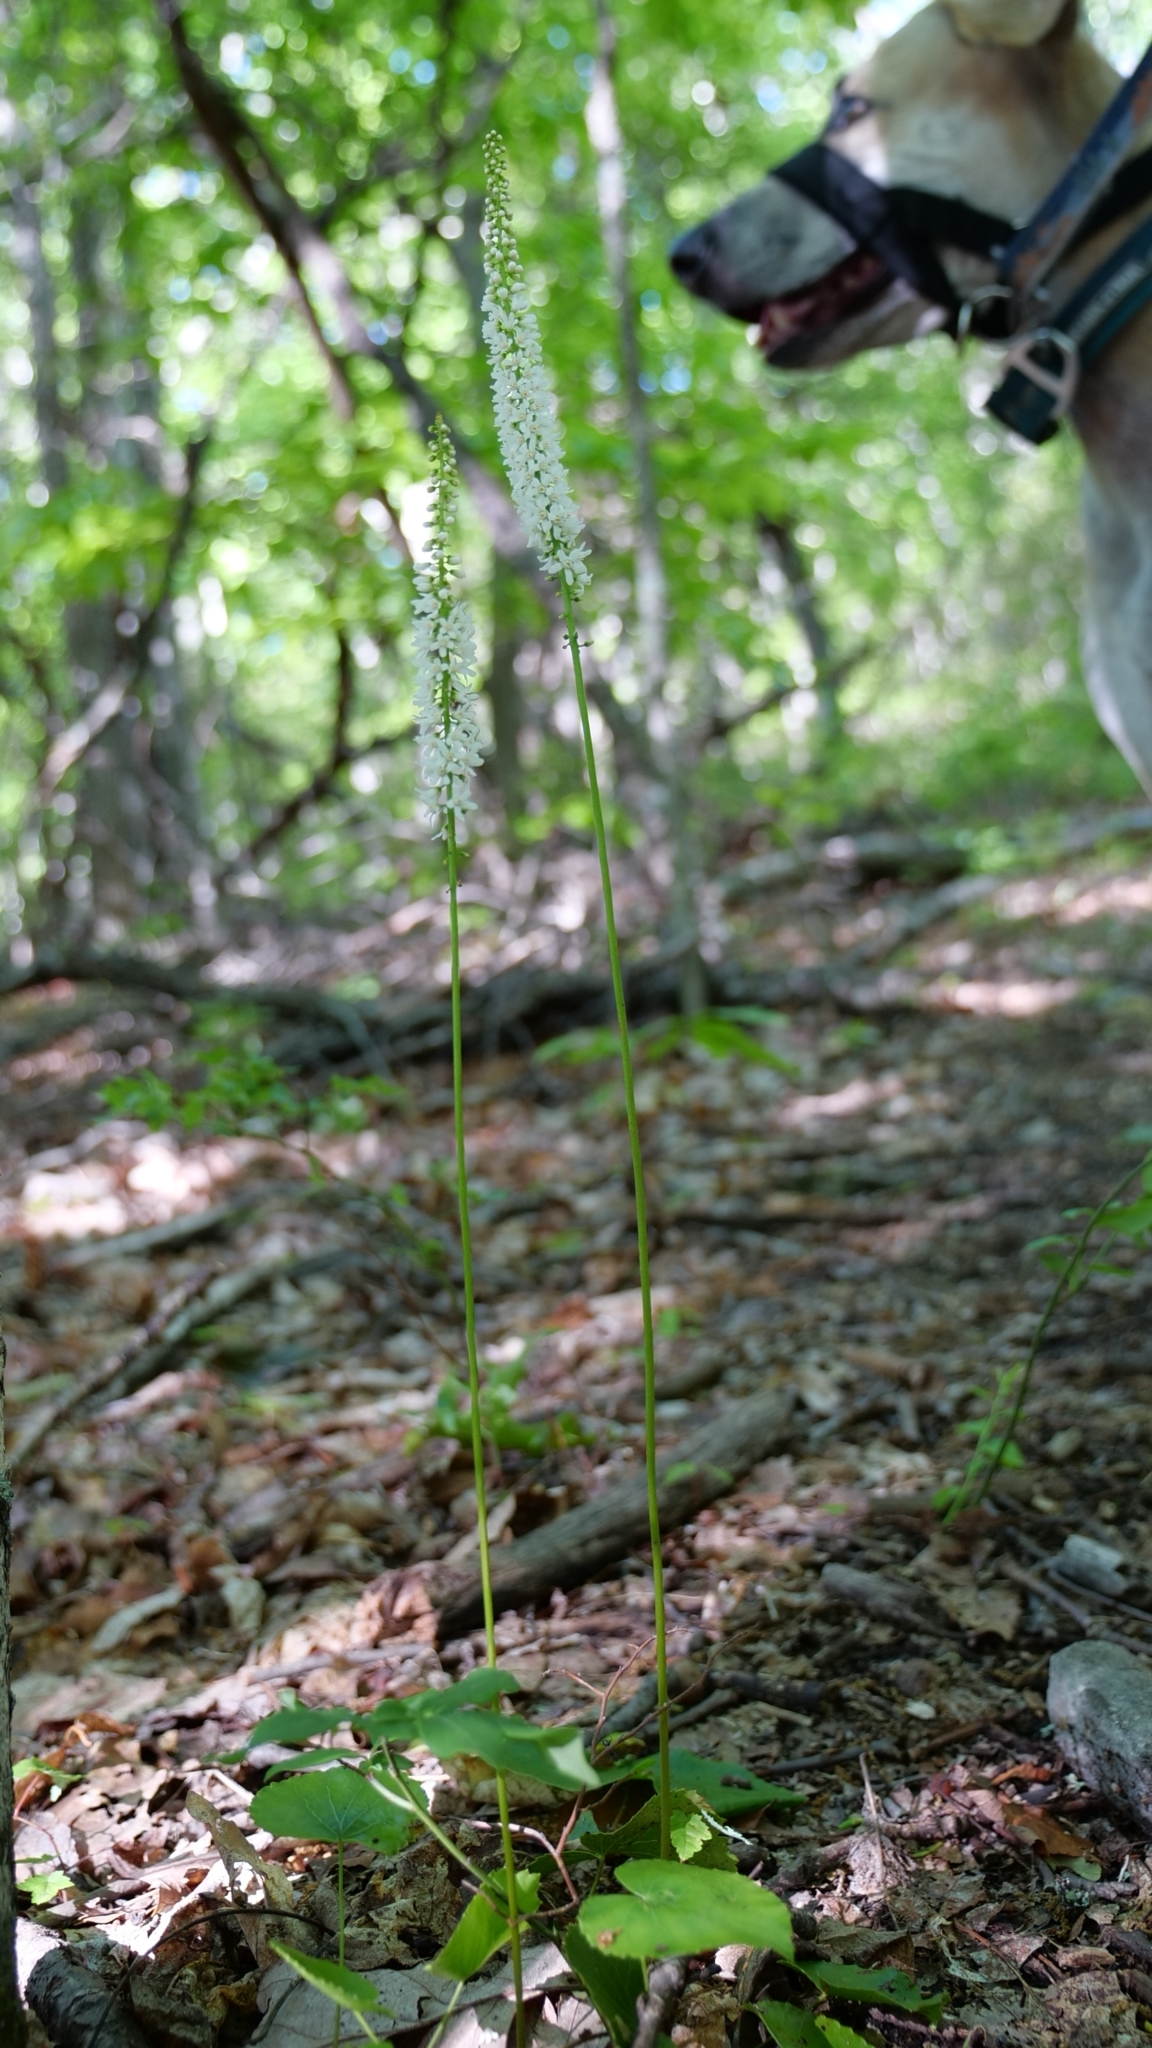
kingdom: Plantae
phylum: Tracheophyta
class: Magnoliopsida
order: Ericales
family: Diapensiaceae
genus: Galax
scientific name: Galax urceolata
